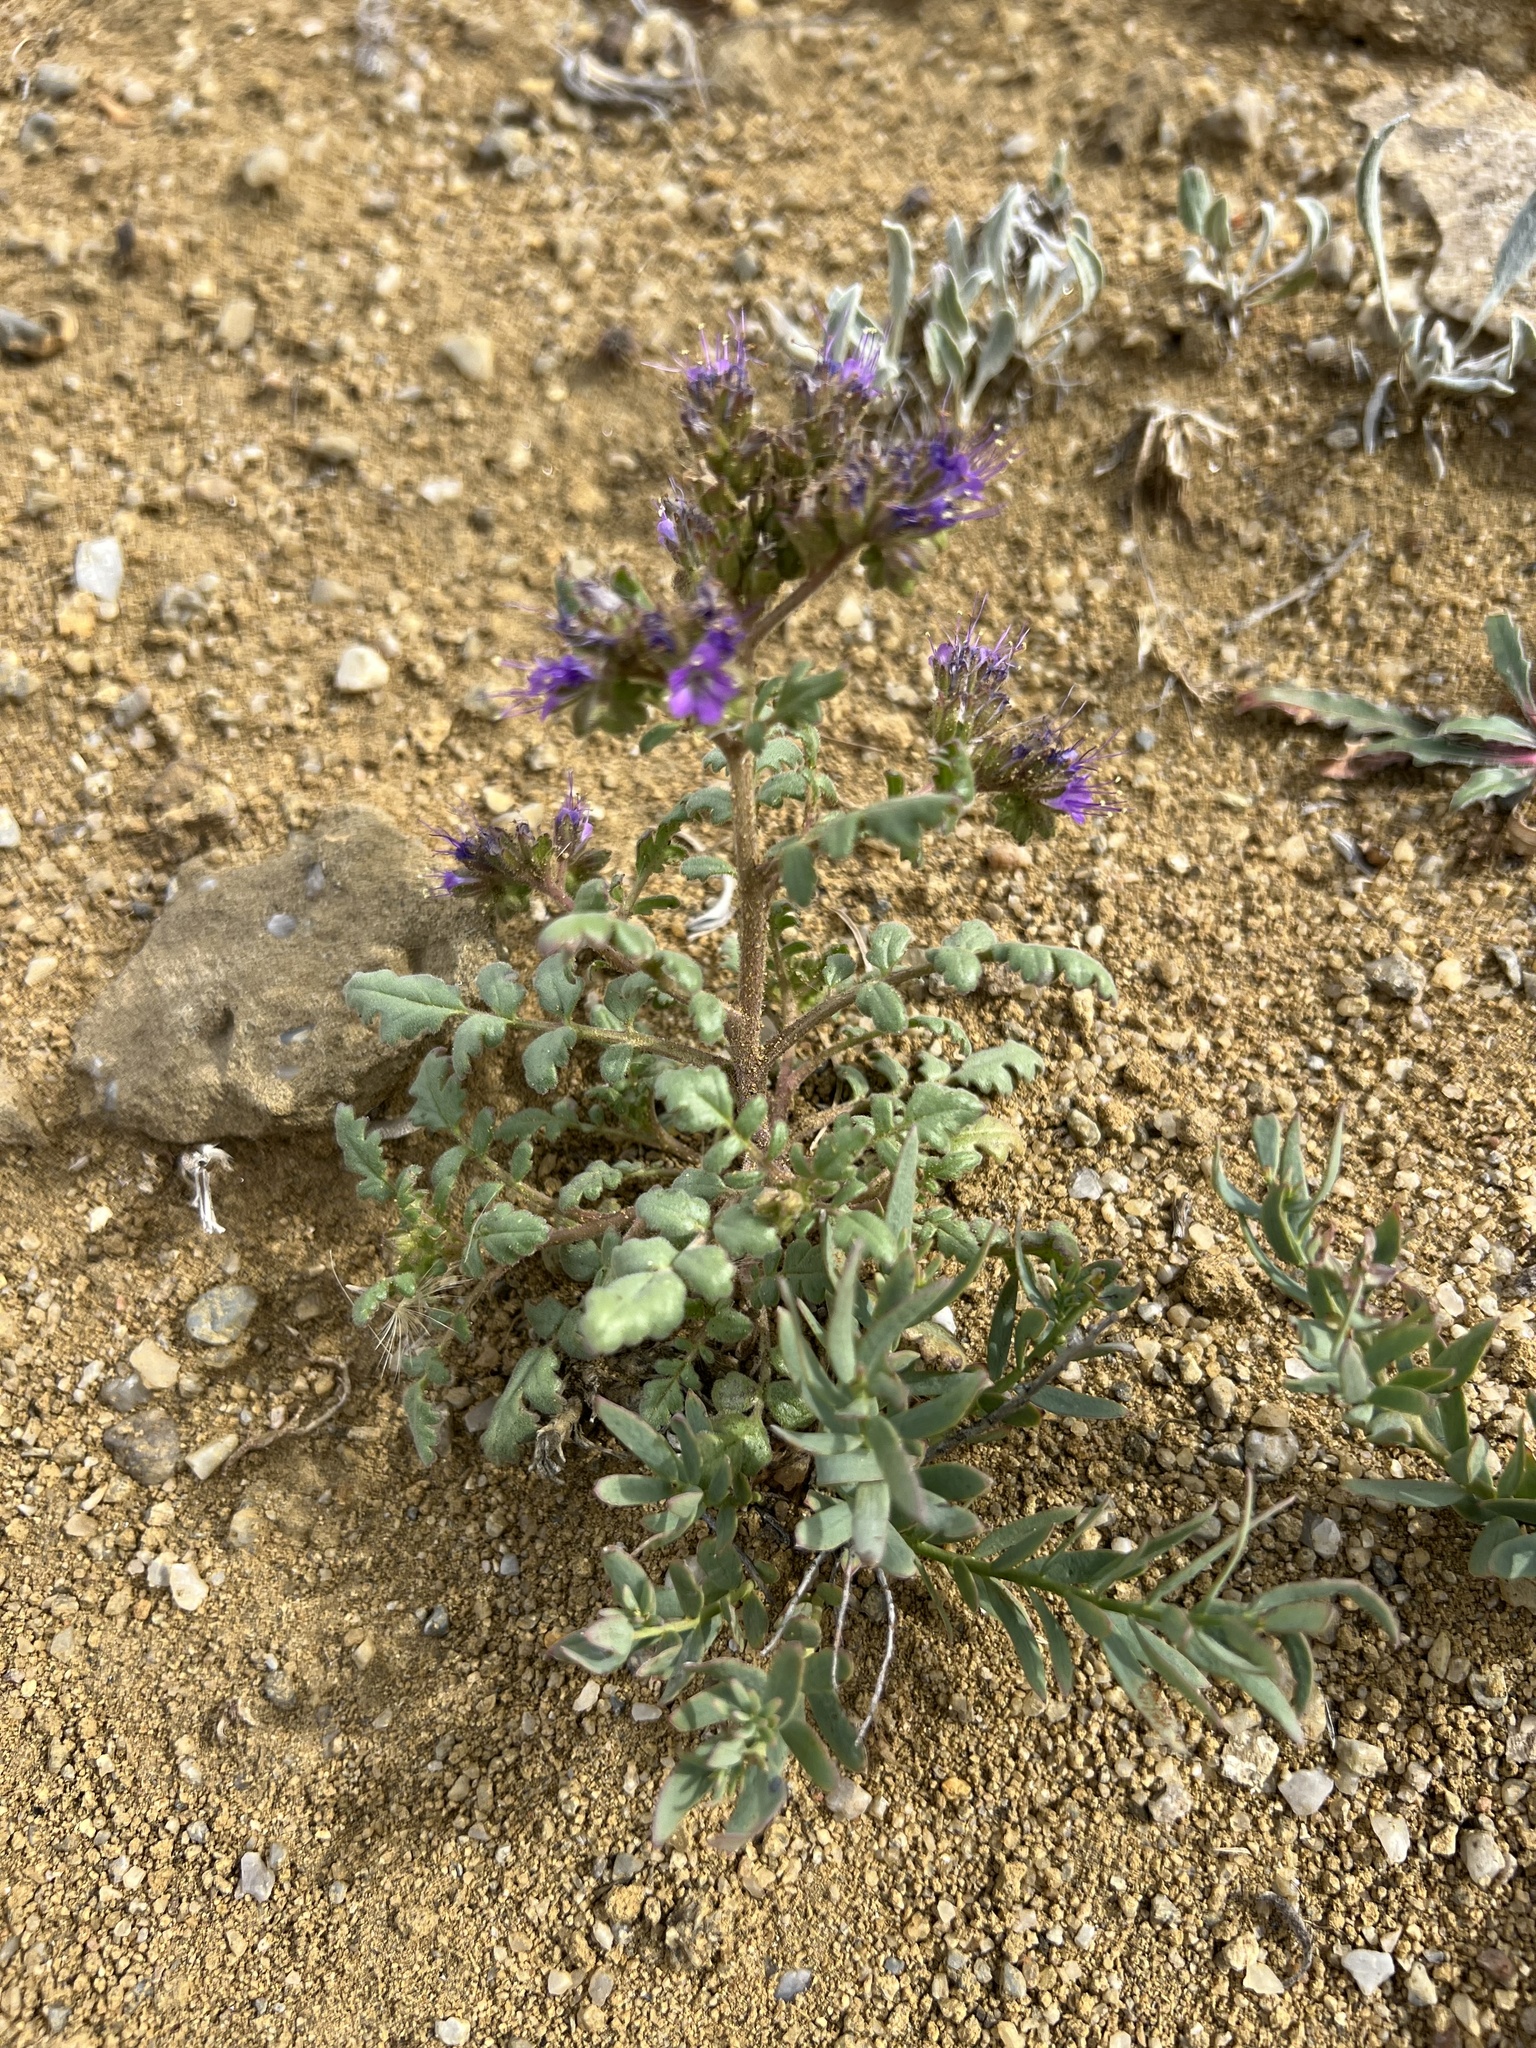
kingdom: Plantae
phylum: Tracheophyta
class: Magnoliopsida
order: Boraginales
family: Hydrophyllaceae
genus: Phacelia
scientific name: Phacelia formosula
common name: North park phacelia
